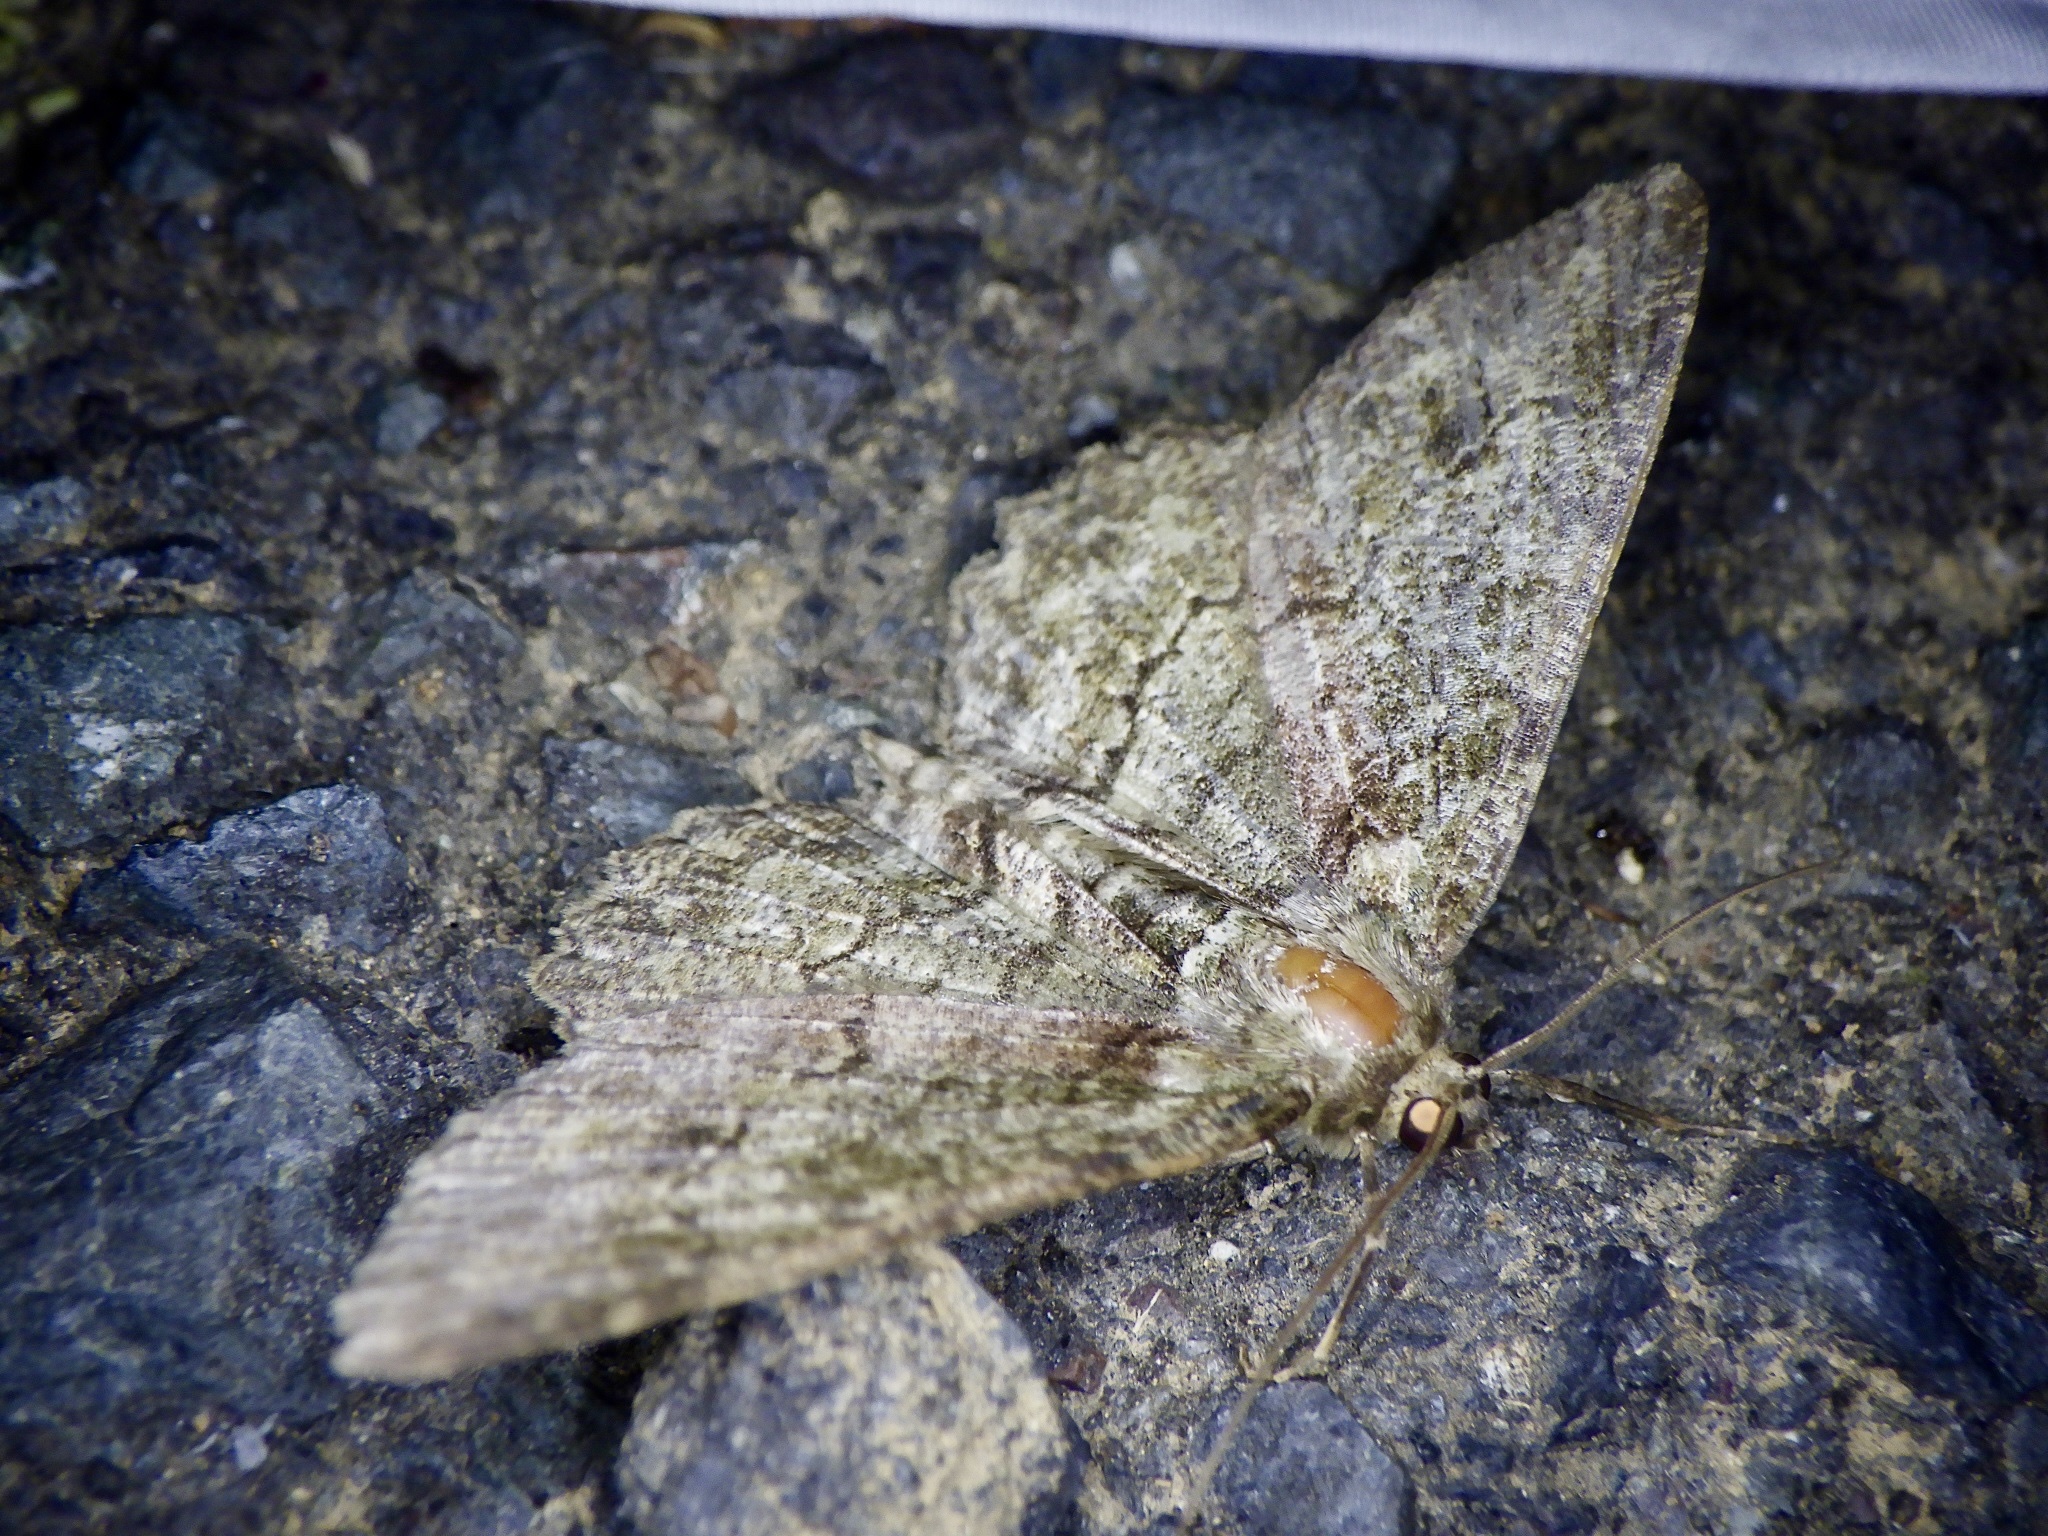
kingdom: Animalia
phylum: Arthropoda
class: Insecta
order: Lepidoptera
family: Geometridae
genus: Paradarisa
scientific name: Paradarisa chloauges
